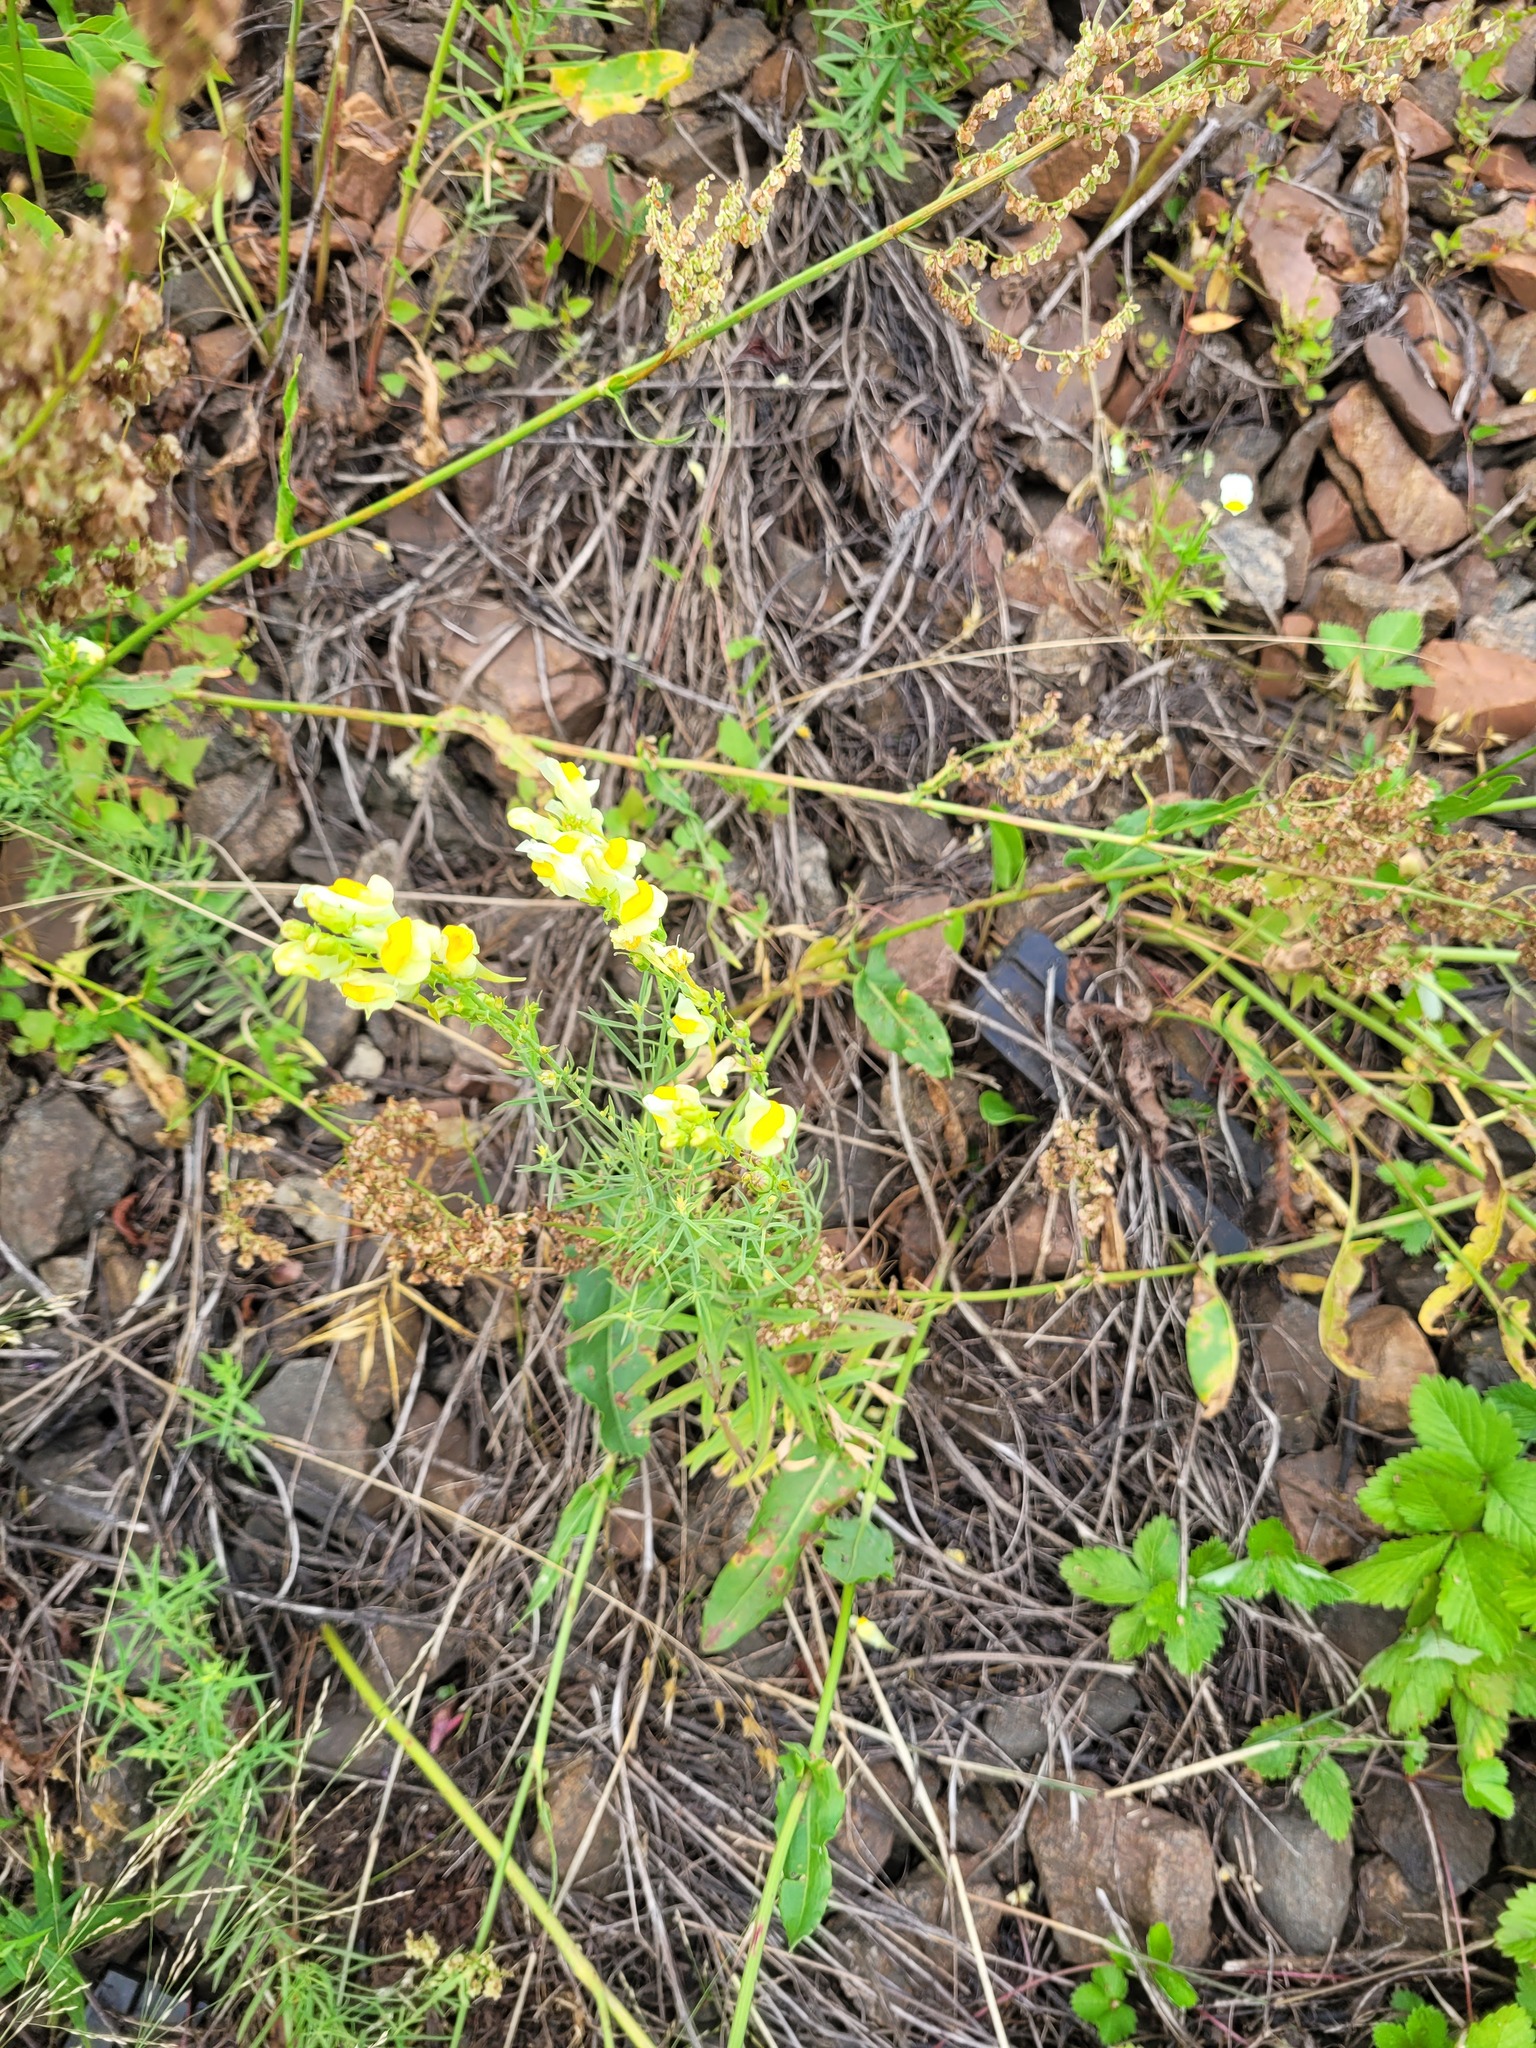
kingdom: Plantae
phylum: Tracheophyta
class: Magnoliopsida
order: Lamiales
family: Plantaginaceae
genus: Linaria
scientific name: Linaria vulgaris
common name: Butter and eggs
